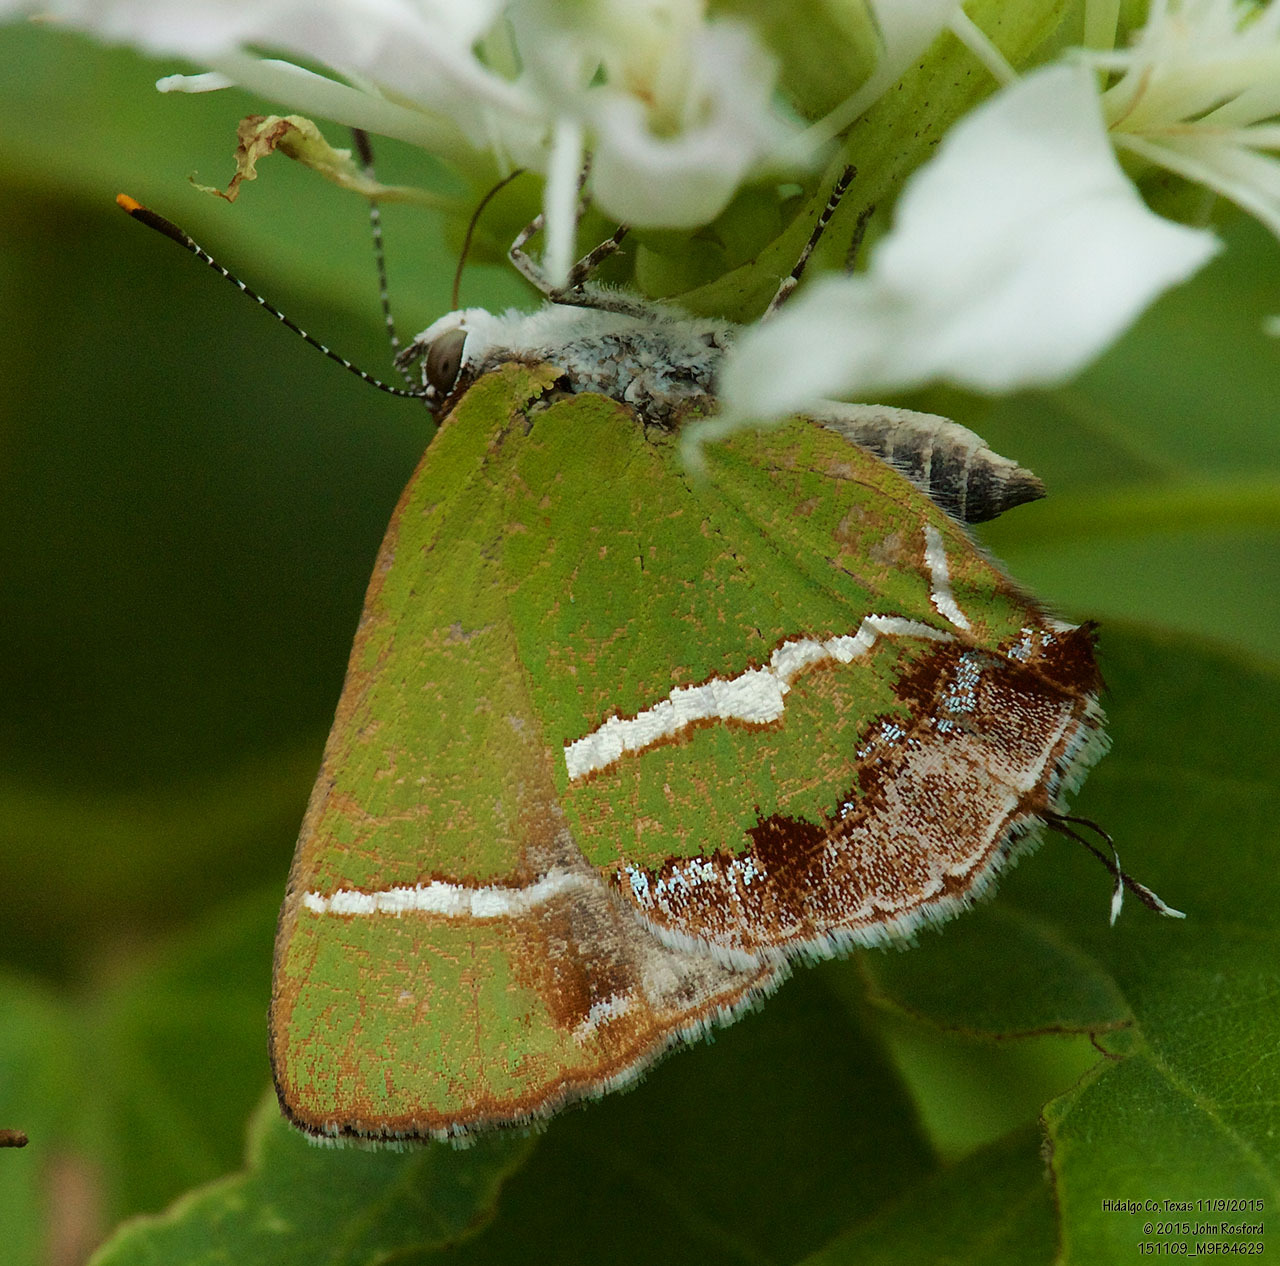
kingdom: Animalia
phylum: Arthropoda
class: Insecta
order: Lepidoptera
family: Lycaenidae
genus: Chlorostrymon
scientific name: Chlorostrymon simaethis
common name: Silver-banded hairstreak
